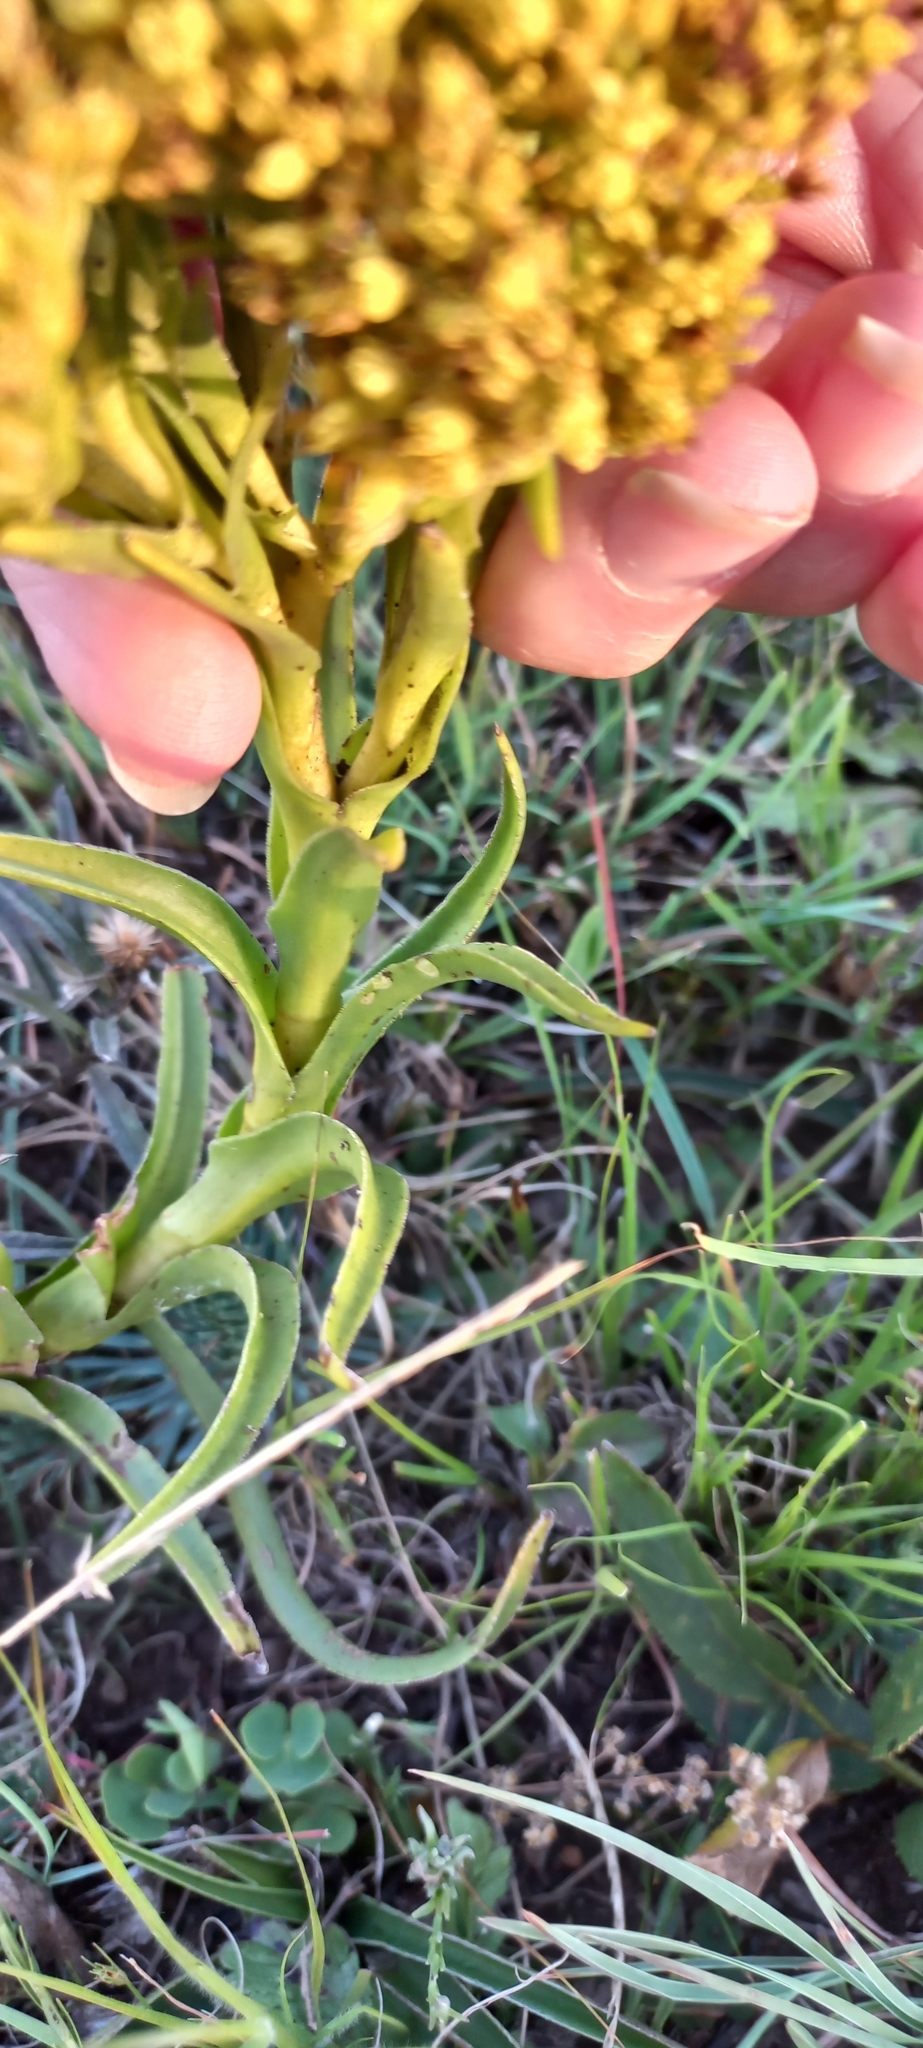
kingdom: Plantae
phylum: Tracheophyta
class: Magnoliopsida
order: Saxifragales
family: Crassulaceae
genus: Crassula
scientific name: Crassula vaginata
